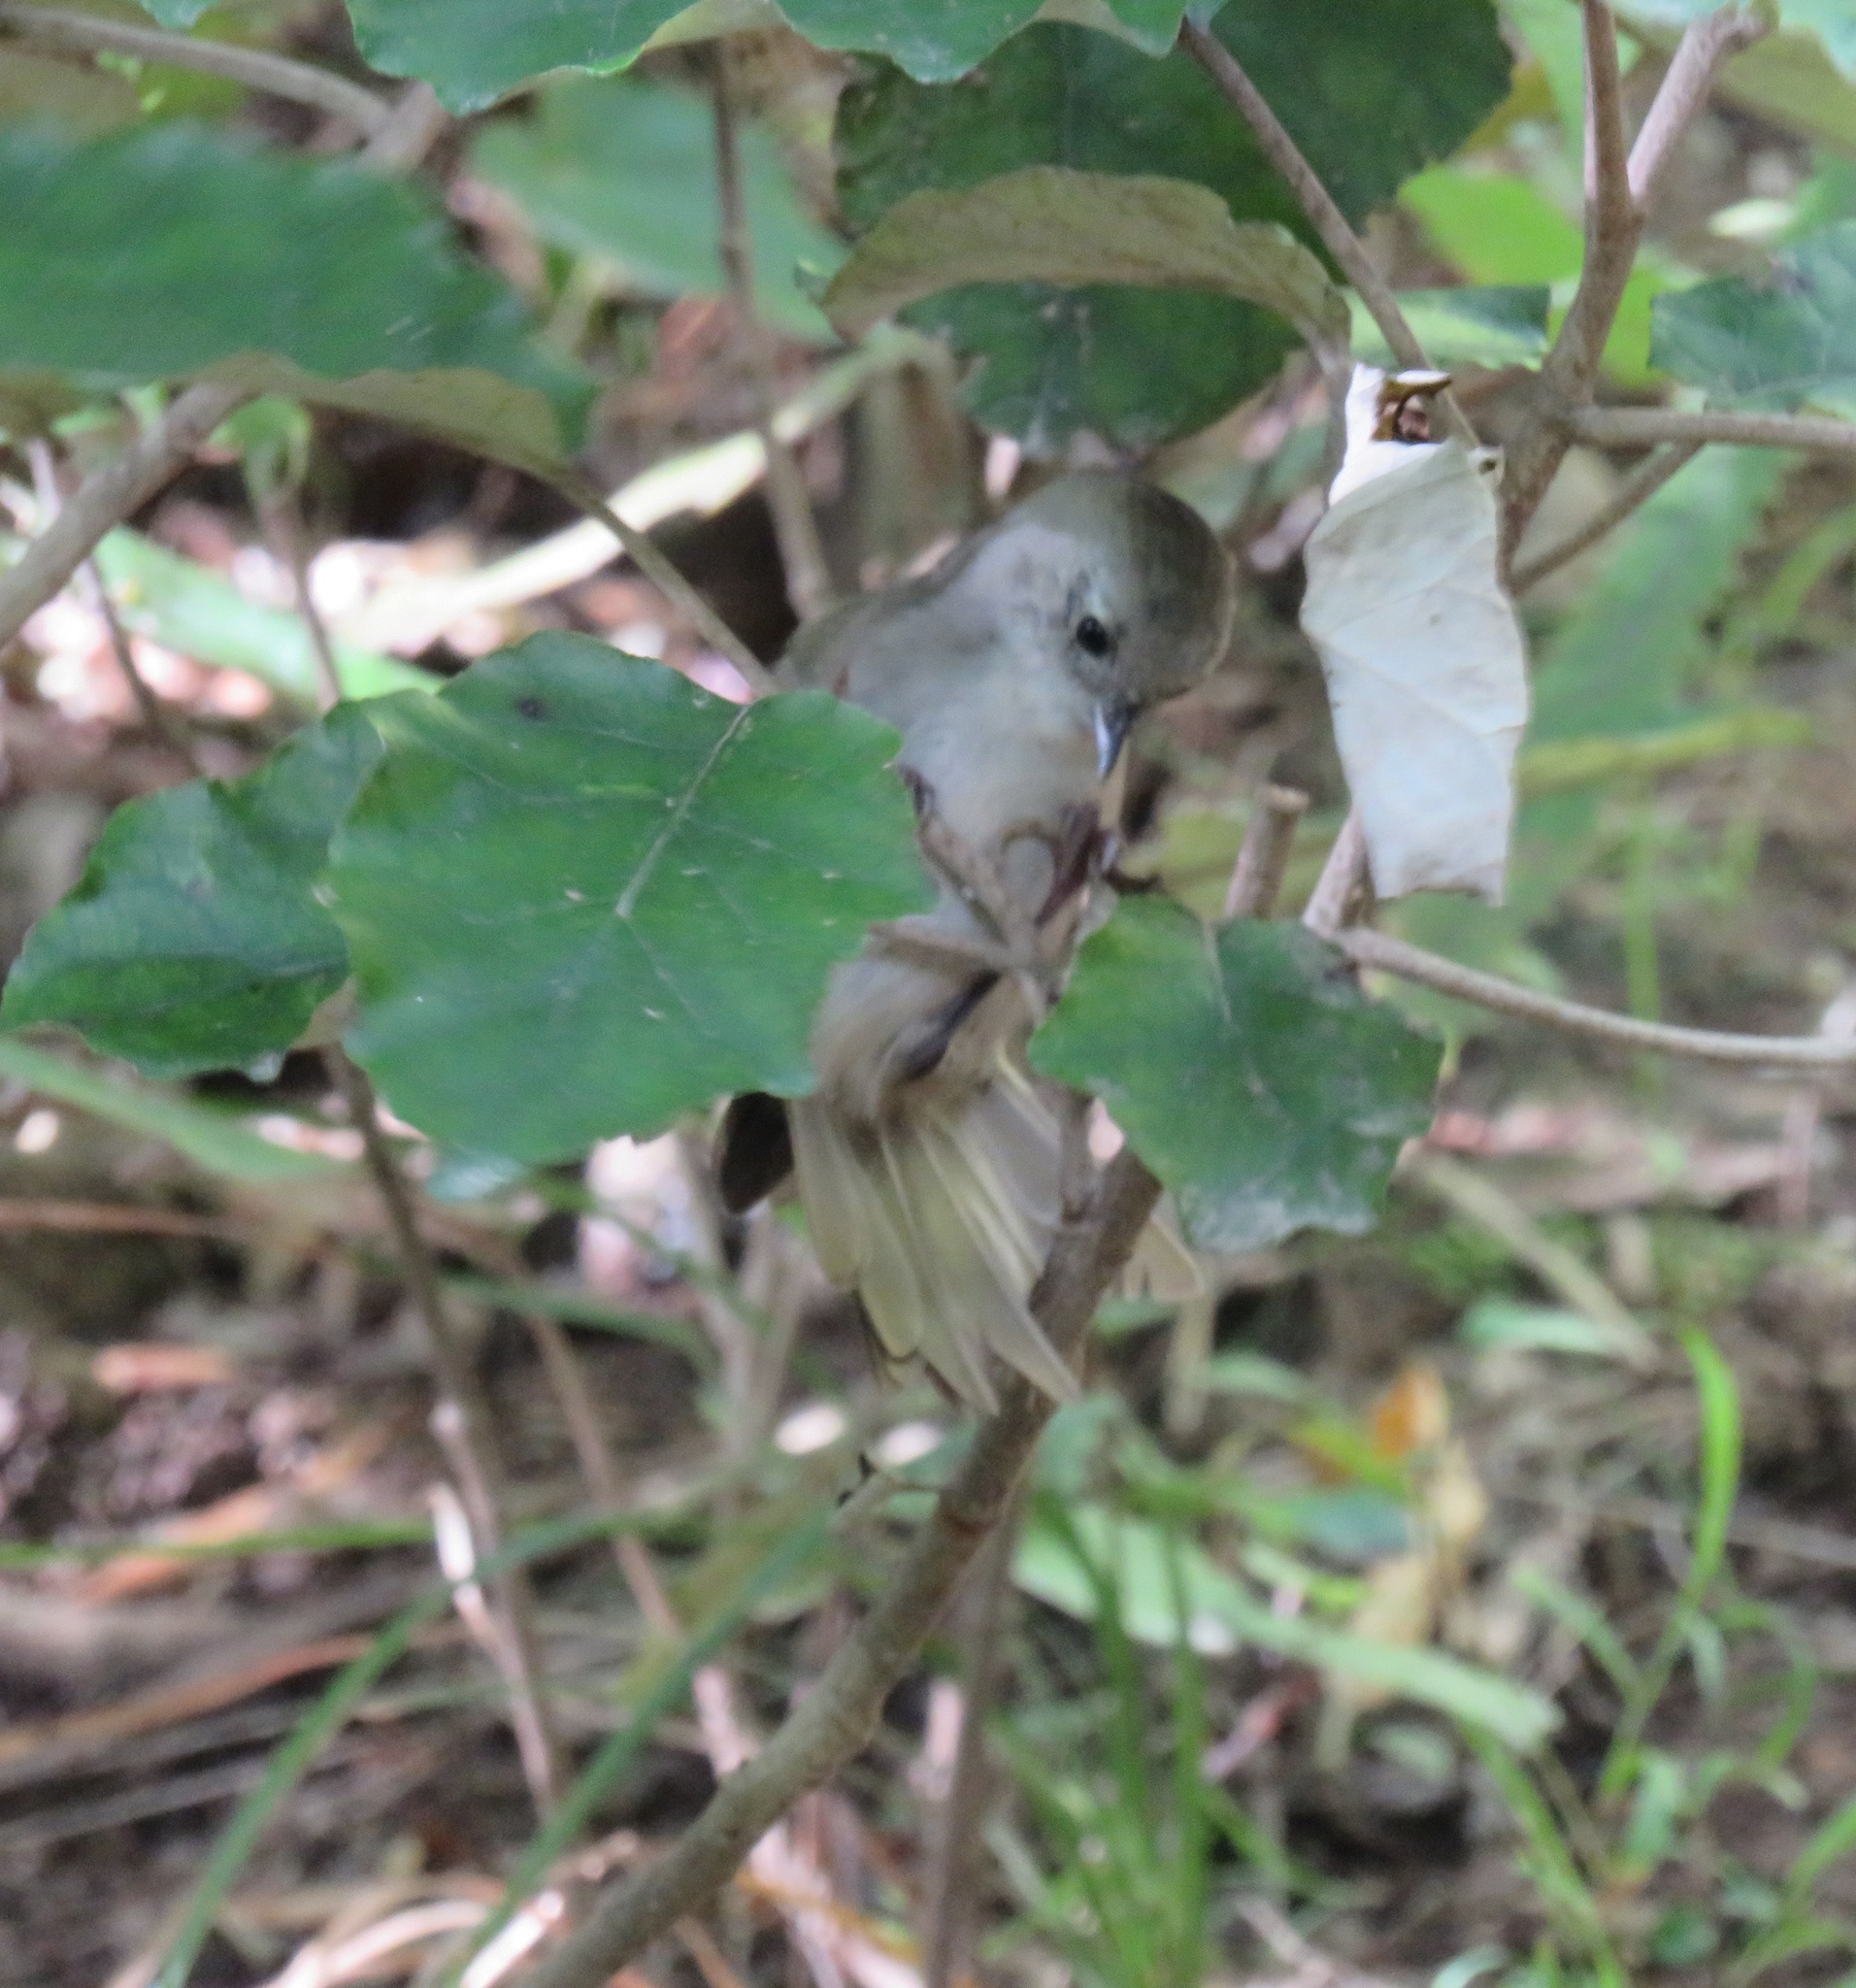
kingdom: Animalia
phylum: Chordata
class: Aves
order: Passeriformes
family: Acanthizidae
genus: Mohoua
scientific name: Mohoua albicilla
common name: Whitehead
